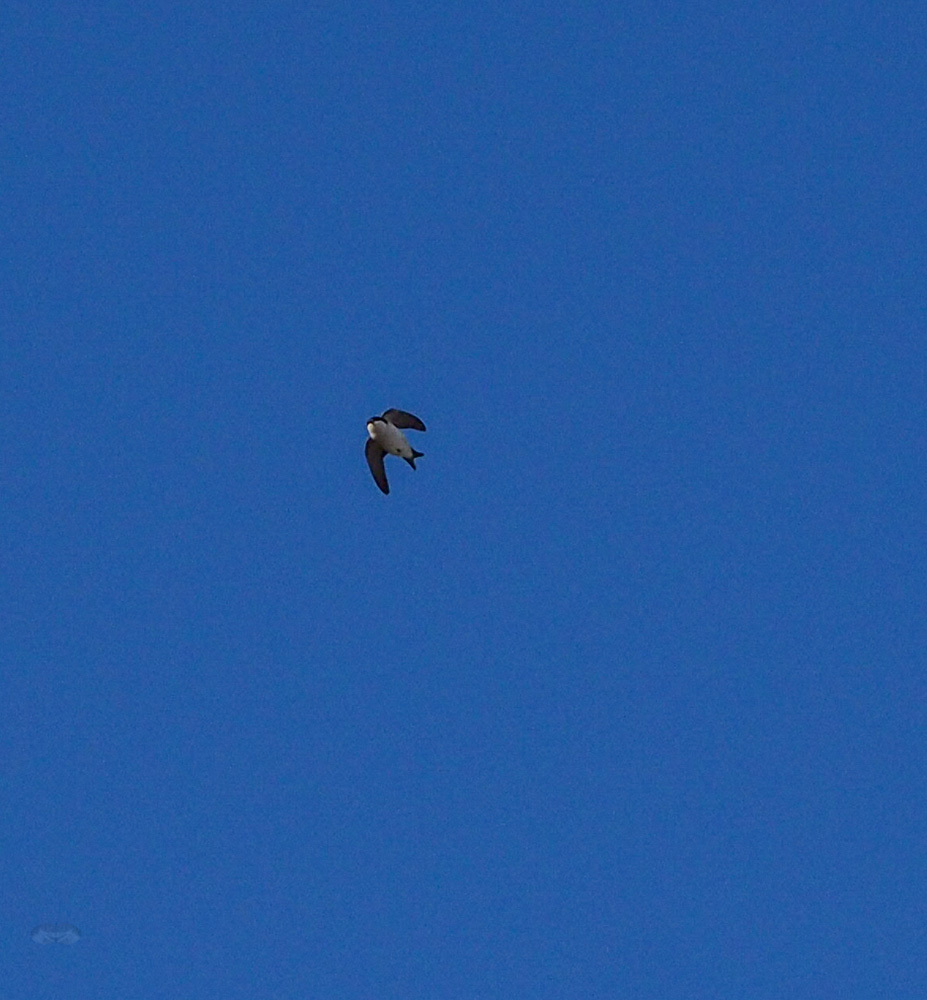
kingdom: Animalia
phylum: Chordata
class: Aves
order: Passeriformes
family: Hirundinidae
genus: Delichon
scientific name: Delichon urbicum
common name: Common house martin
